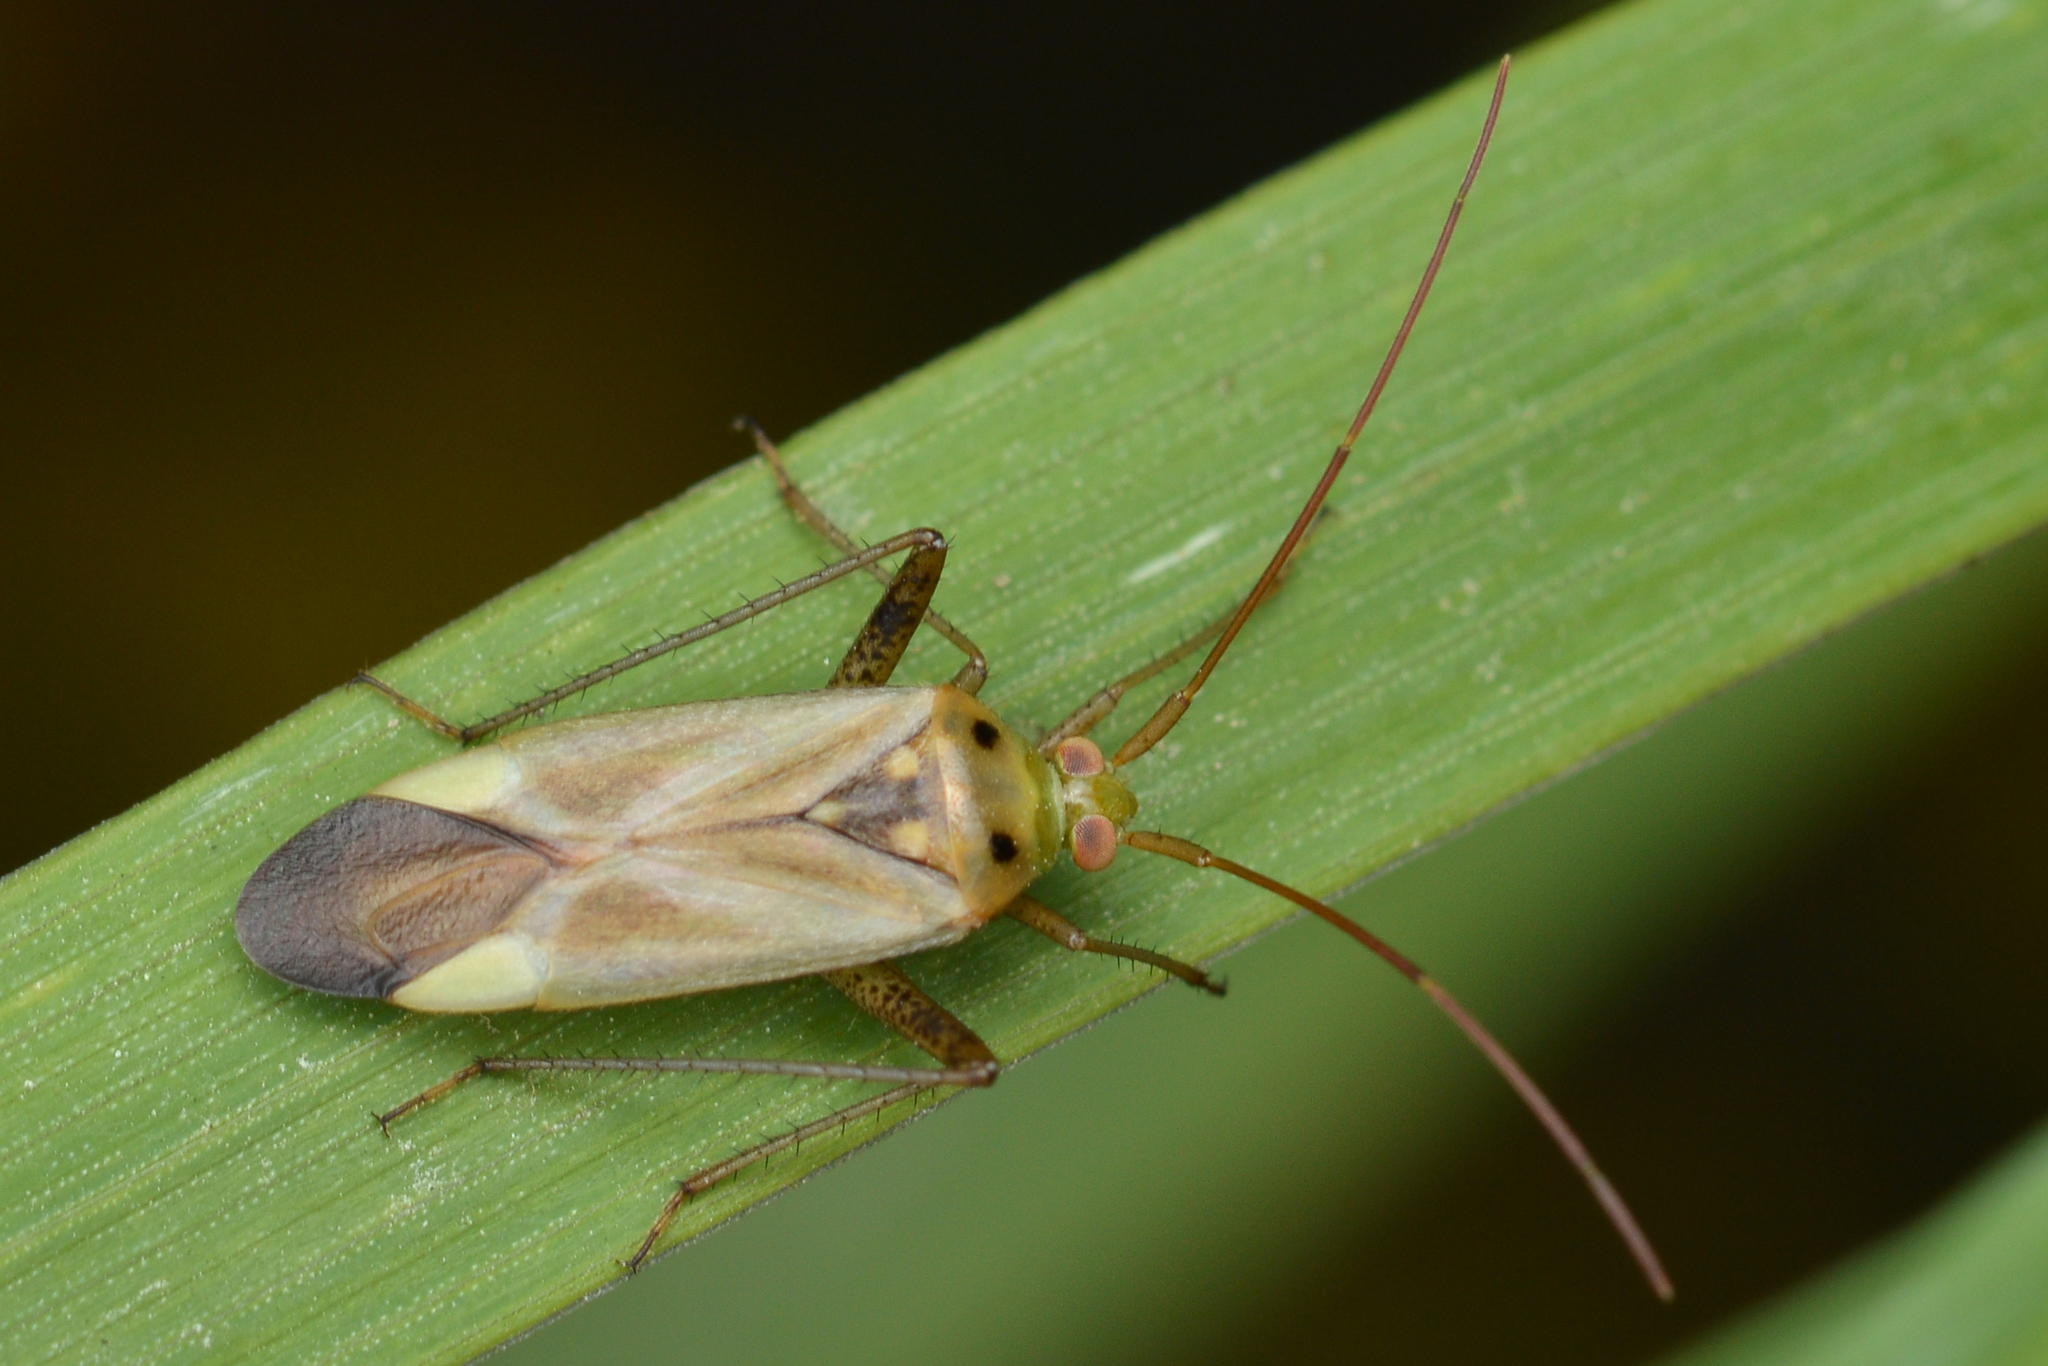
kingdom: Animalia
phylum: Arthropoda
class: Insecta
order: Hemiptera
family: Miridae
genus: Adelphocoris
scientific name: Adelphocoris lineolatus
